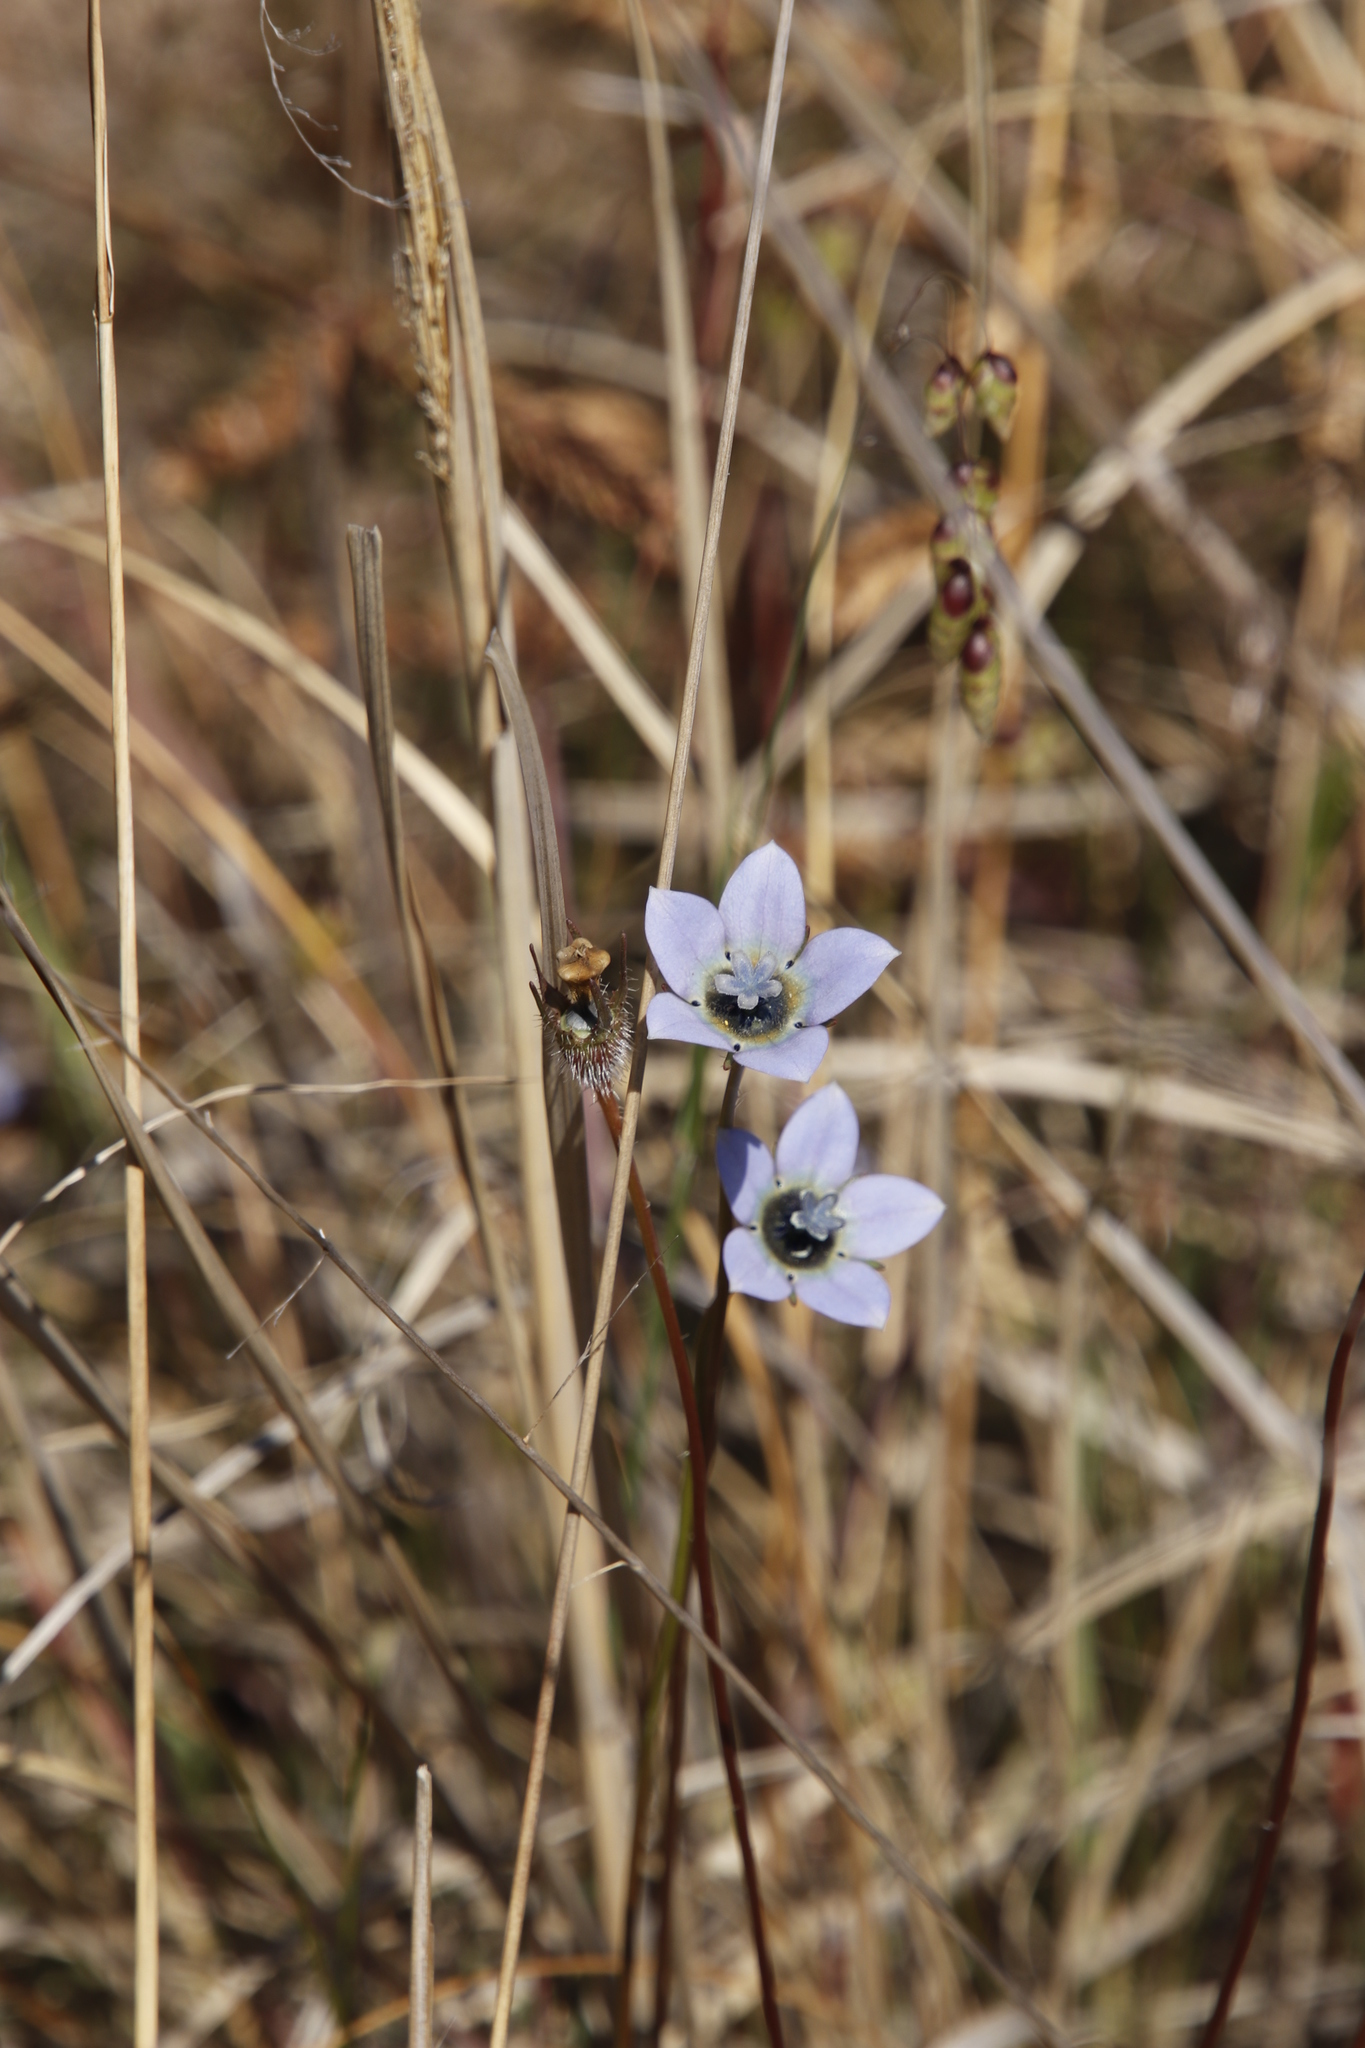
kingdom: Plantae
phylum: Tracheophyta
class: Magnoliopsida
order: Asterales
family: Campanulaceae
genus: Wahlenbergia
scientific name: Wahlenbergia capensis
